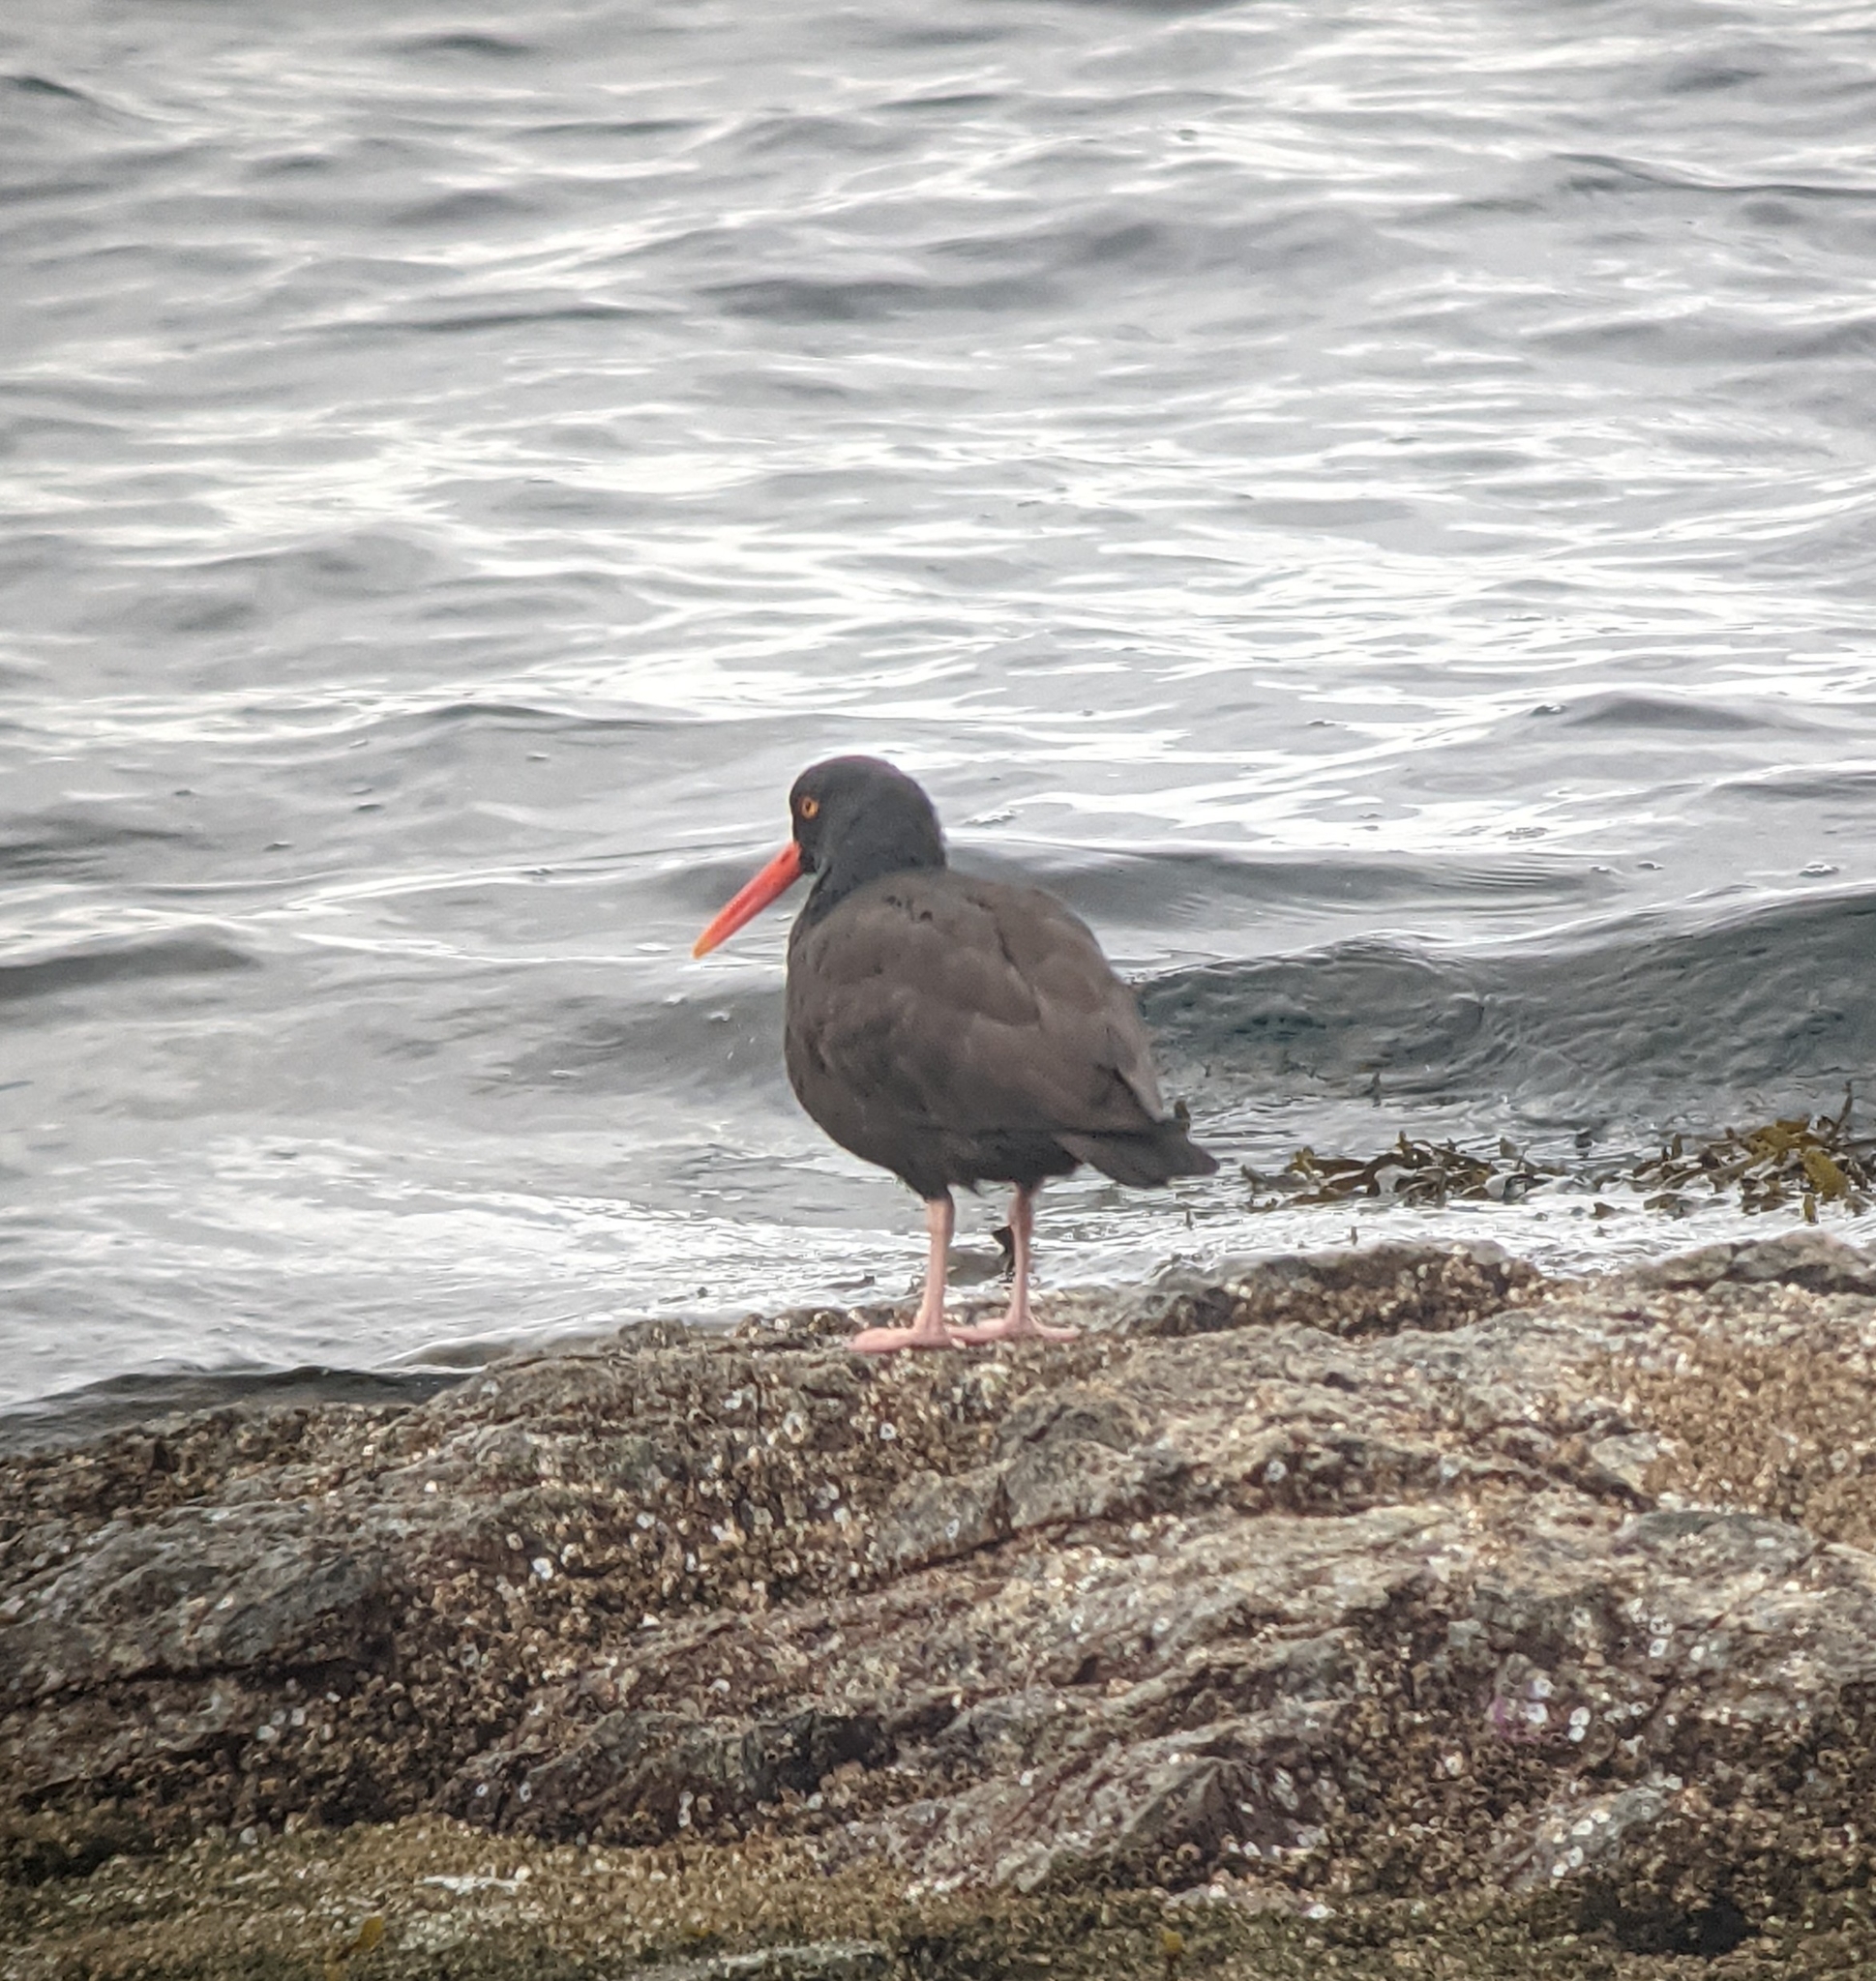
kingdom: Animalia
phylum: Chordata
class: Aves
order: Charadriiformes
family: Haematopodidae
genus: Haematopus
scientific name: Haematopus bachmani
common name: Black oystercatcher
